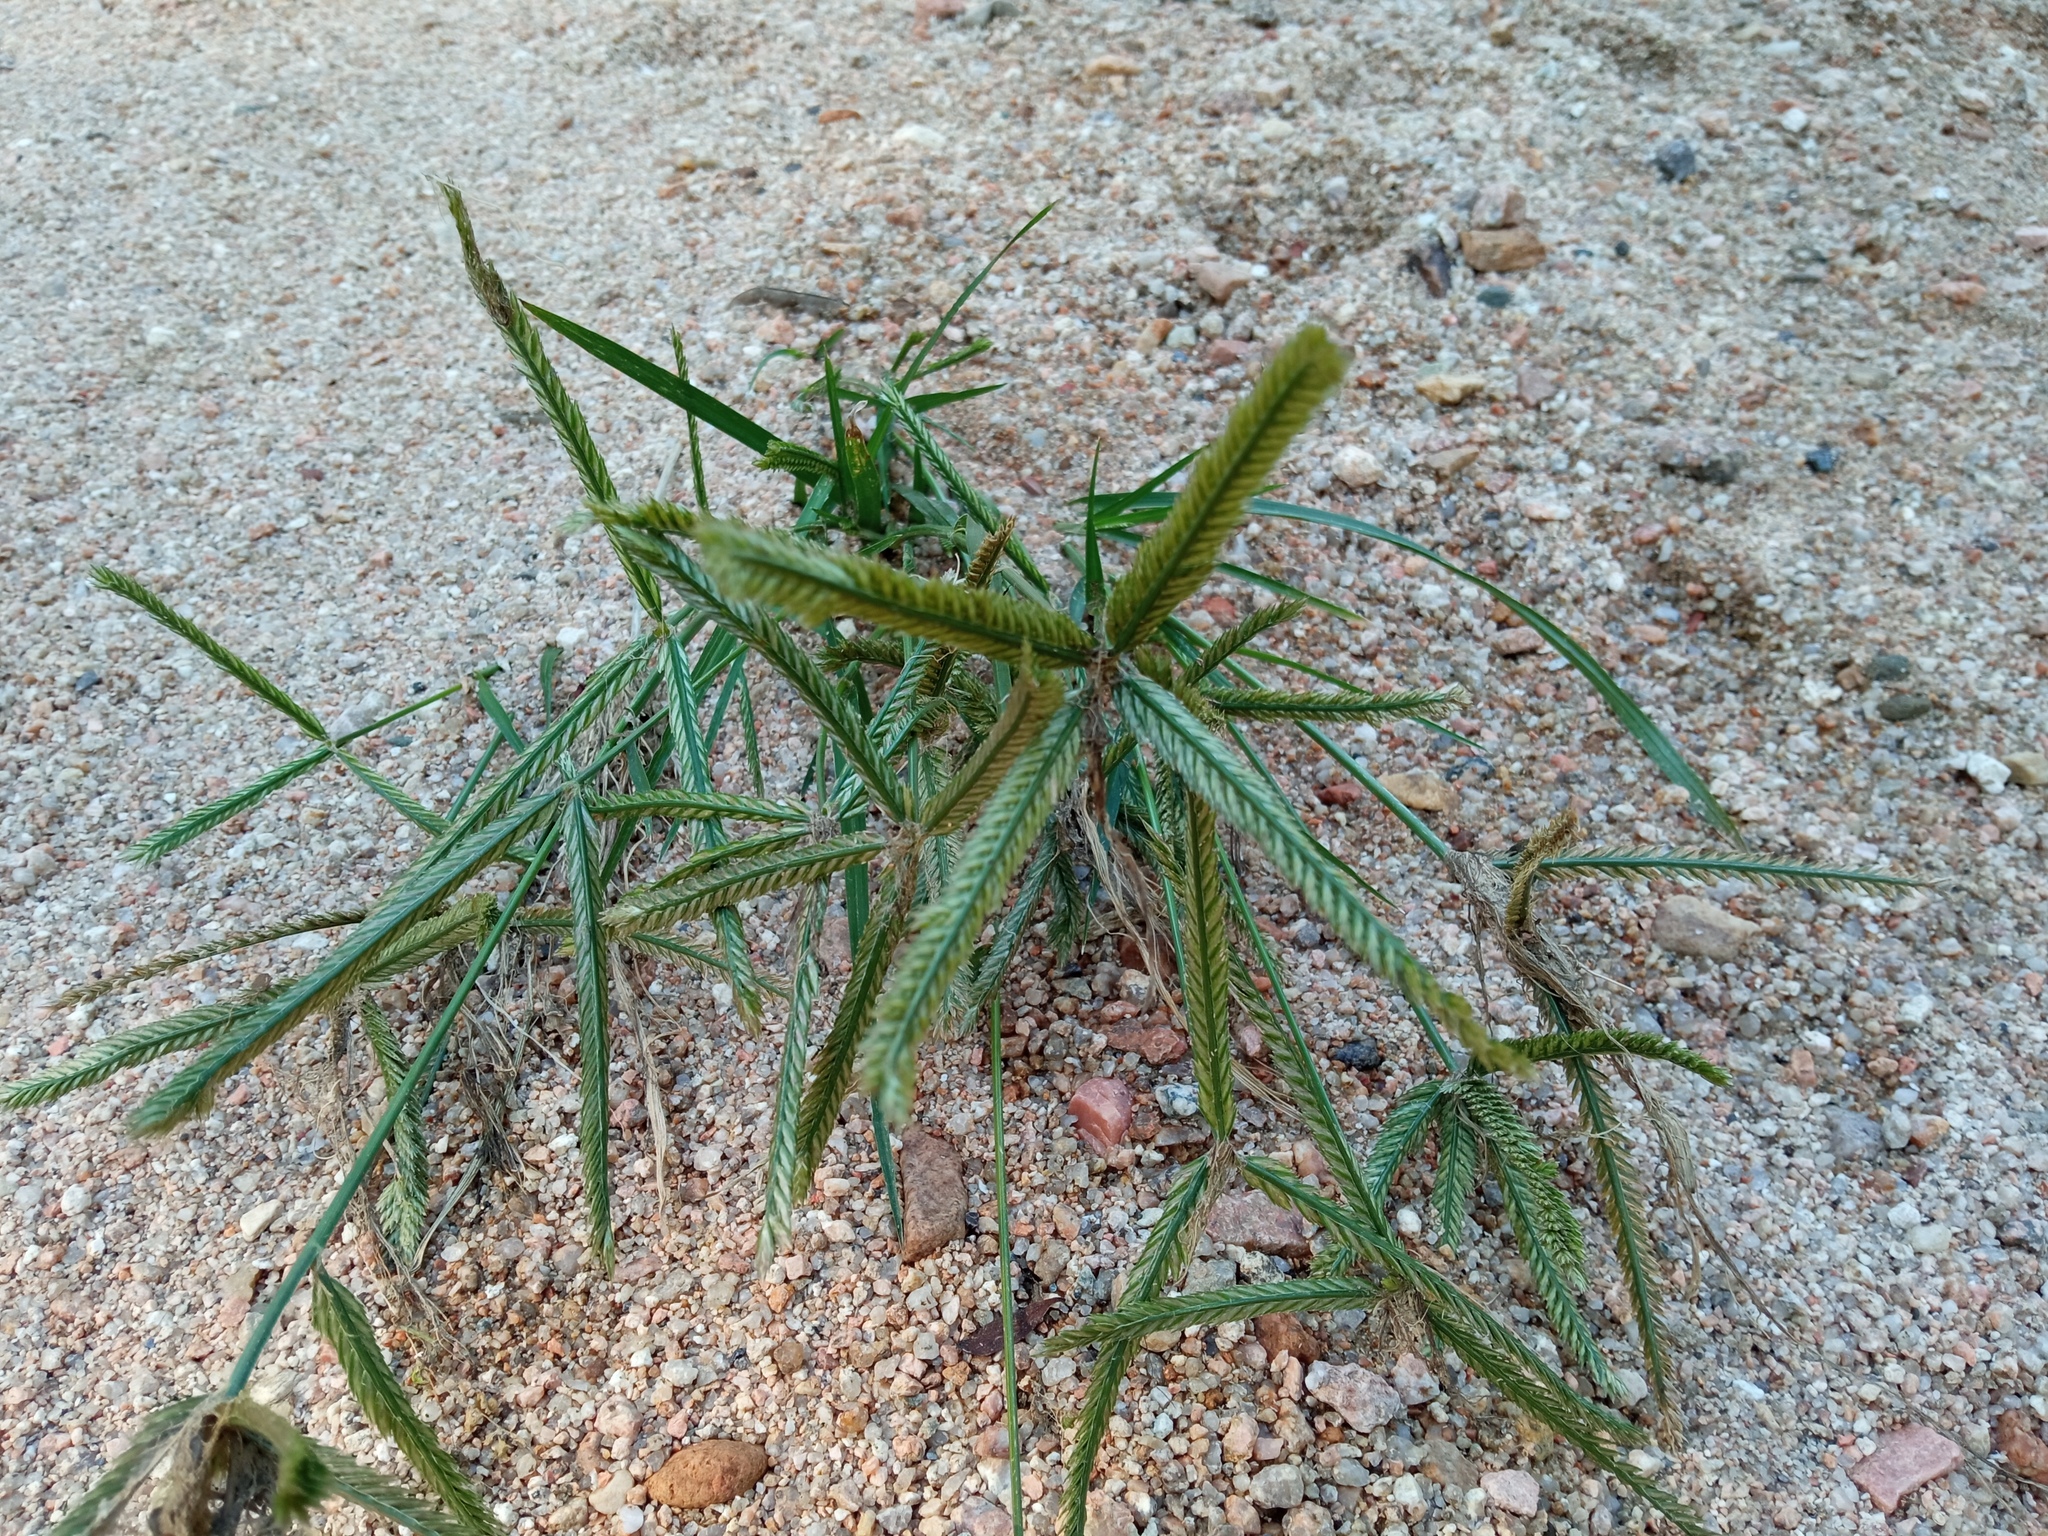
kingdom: Plantae
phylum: Tracheophyta
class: Liliopsida
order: Poales
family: Poaceae
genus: Eleusine
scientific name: Eleusine indica
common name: Yard-grass
